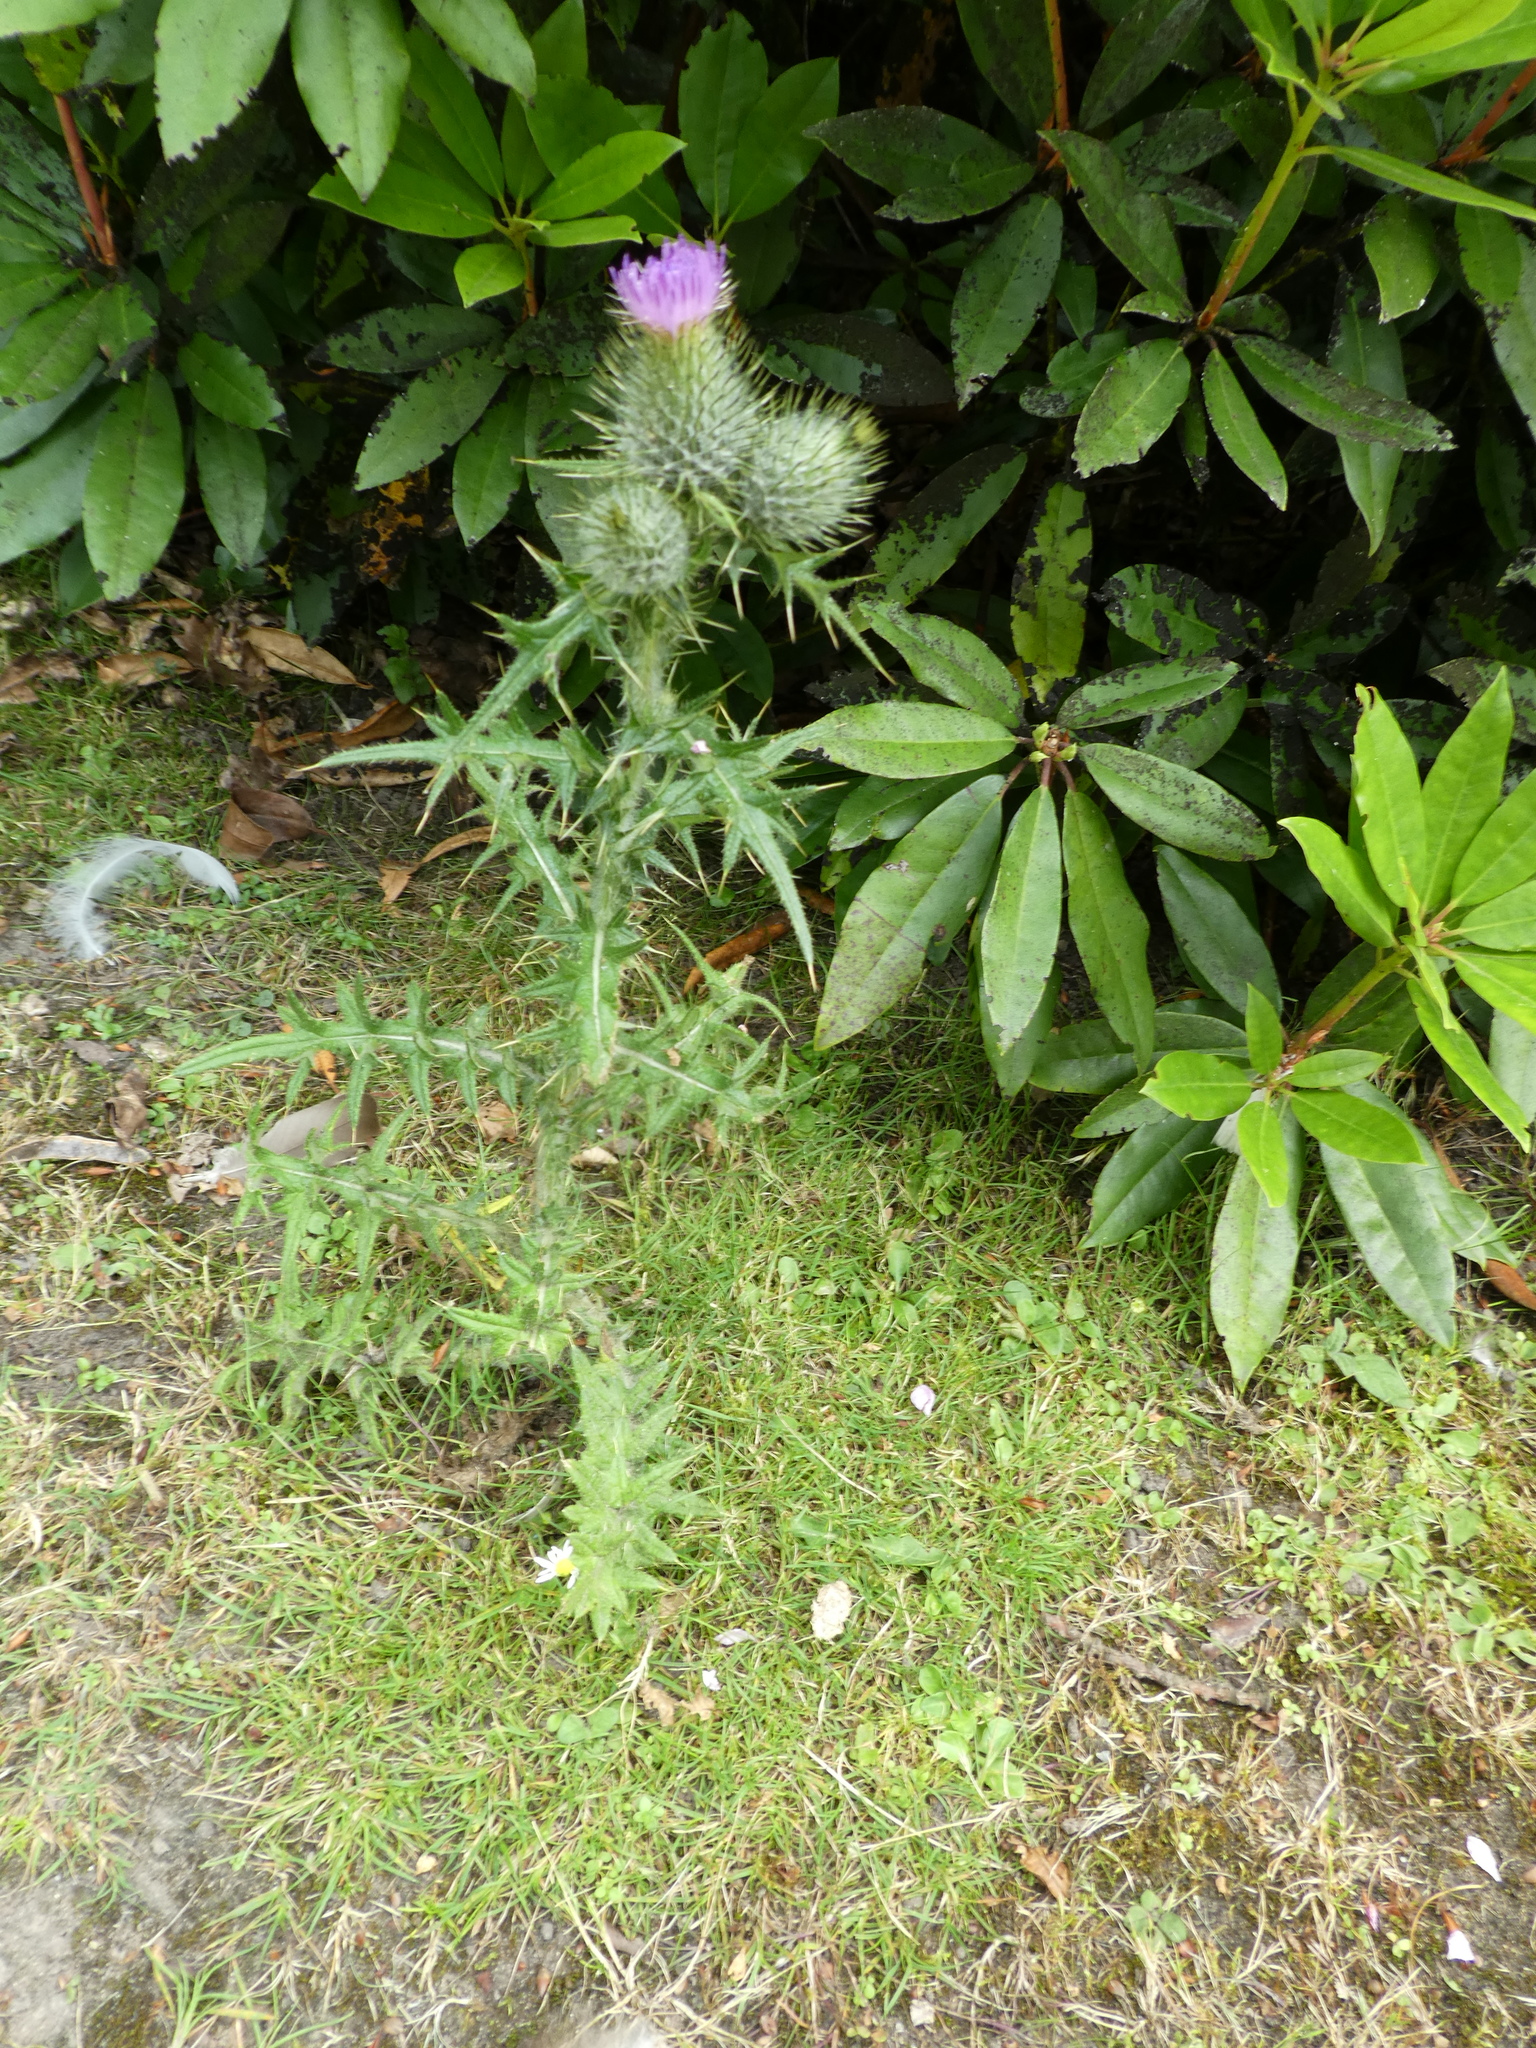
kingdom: Plantae
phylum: Tracheophyta
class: Magnoliopsida
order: Asterales
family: Asteraceae
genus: Cirsium
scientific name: Cirsium vulgare
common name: Bull thistle
